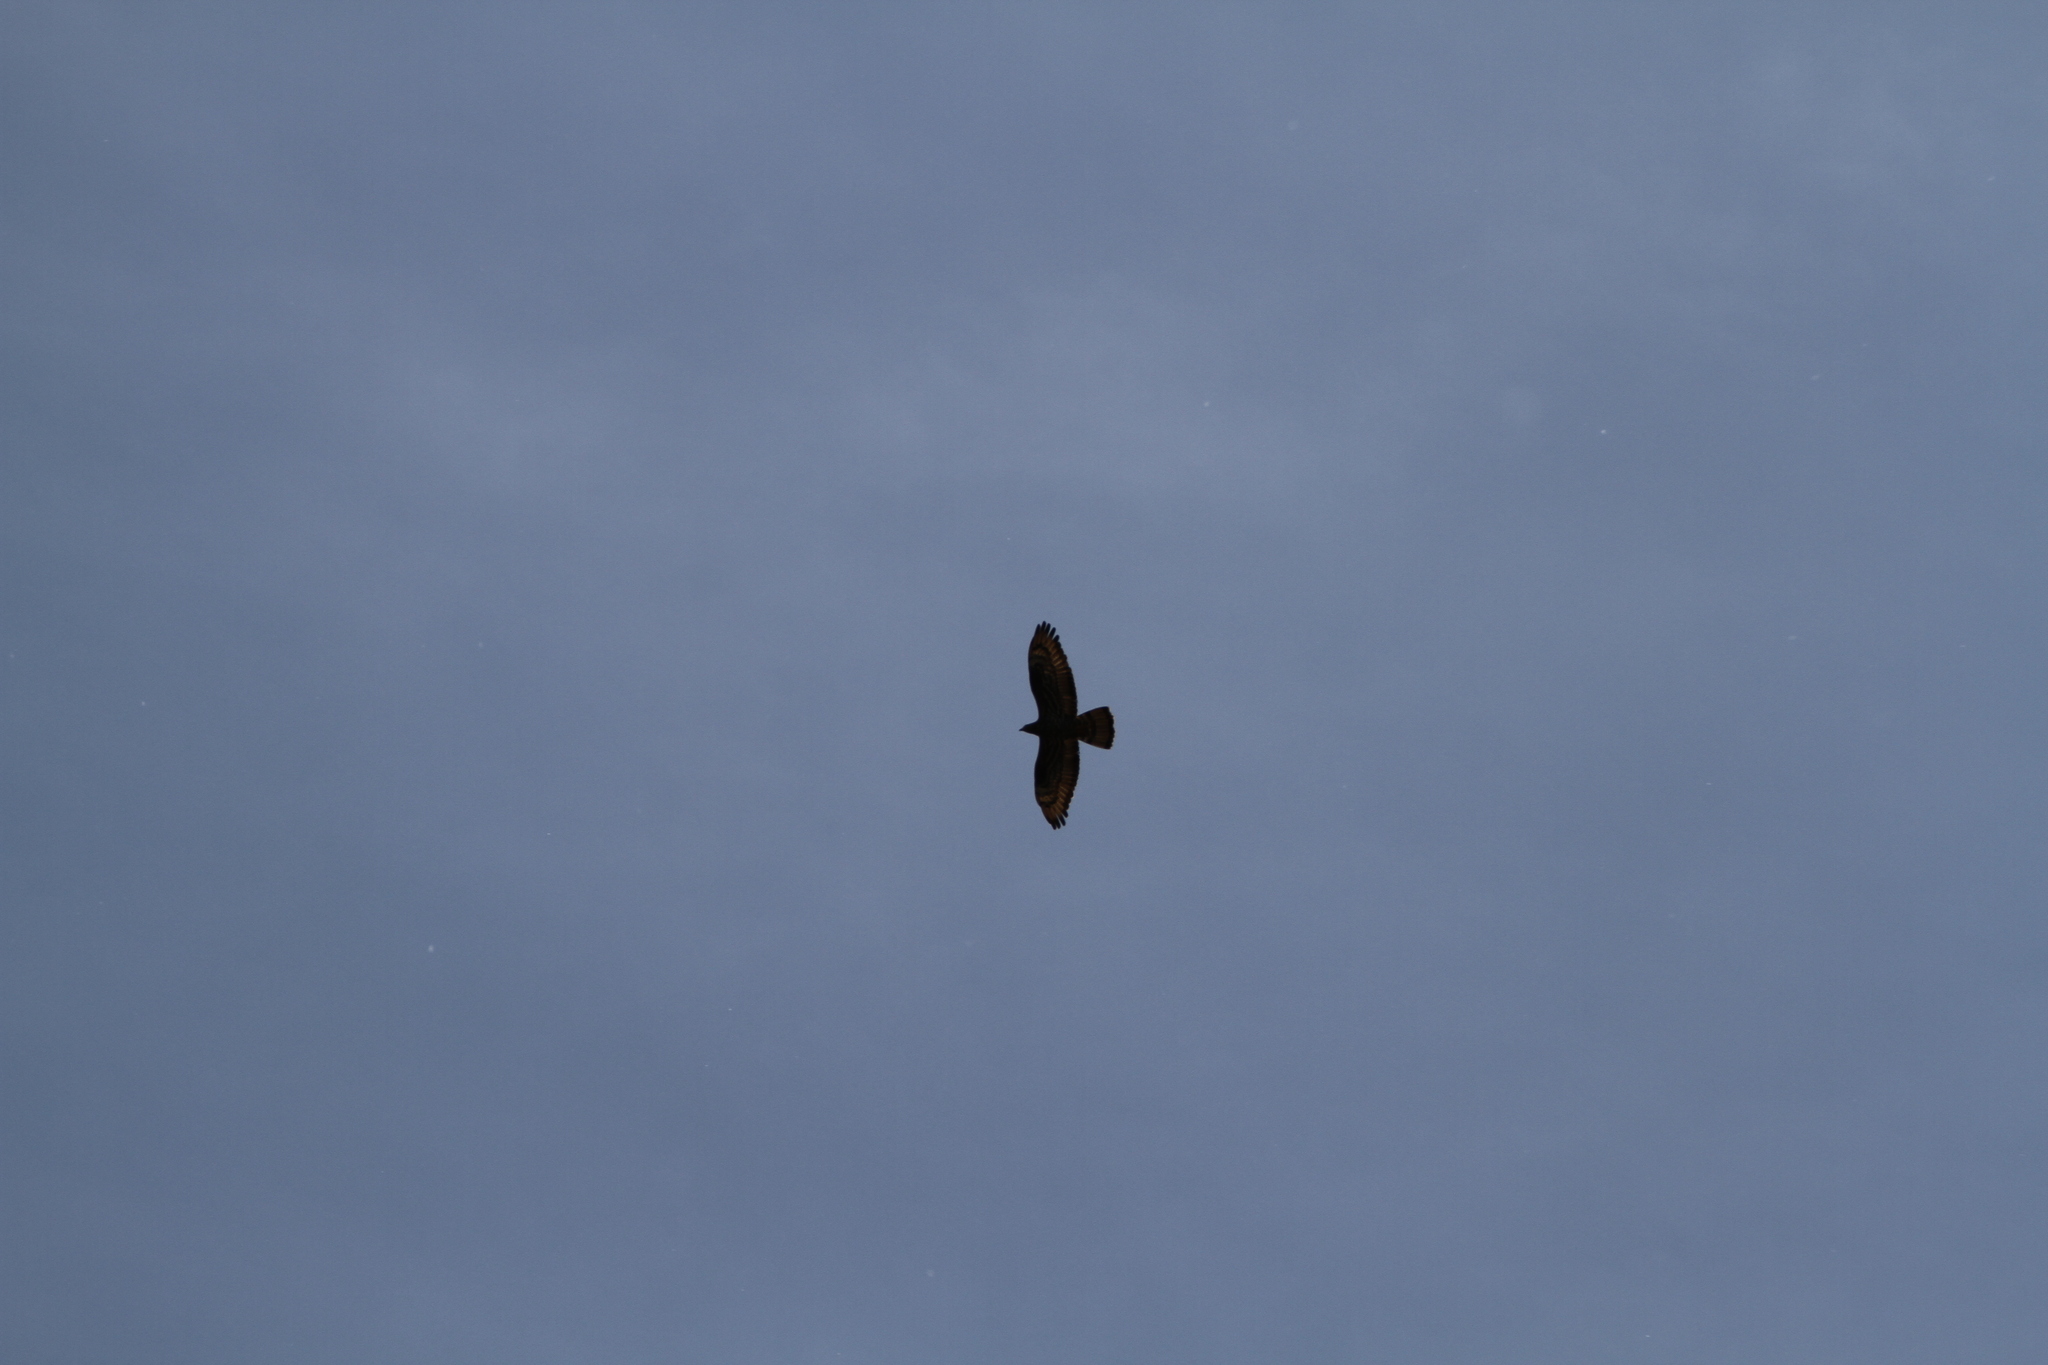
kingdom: Animalia
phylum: Chordata
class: Aves
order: Accipitriformes
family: Accipitridae
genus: Pernis
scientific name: Pernis apivorus
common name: European honey buzzard
